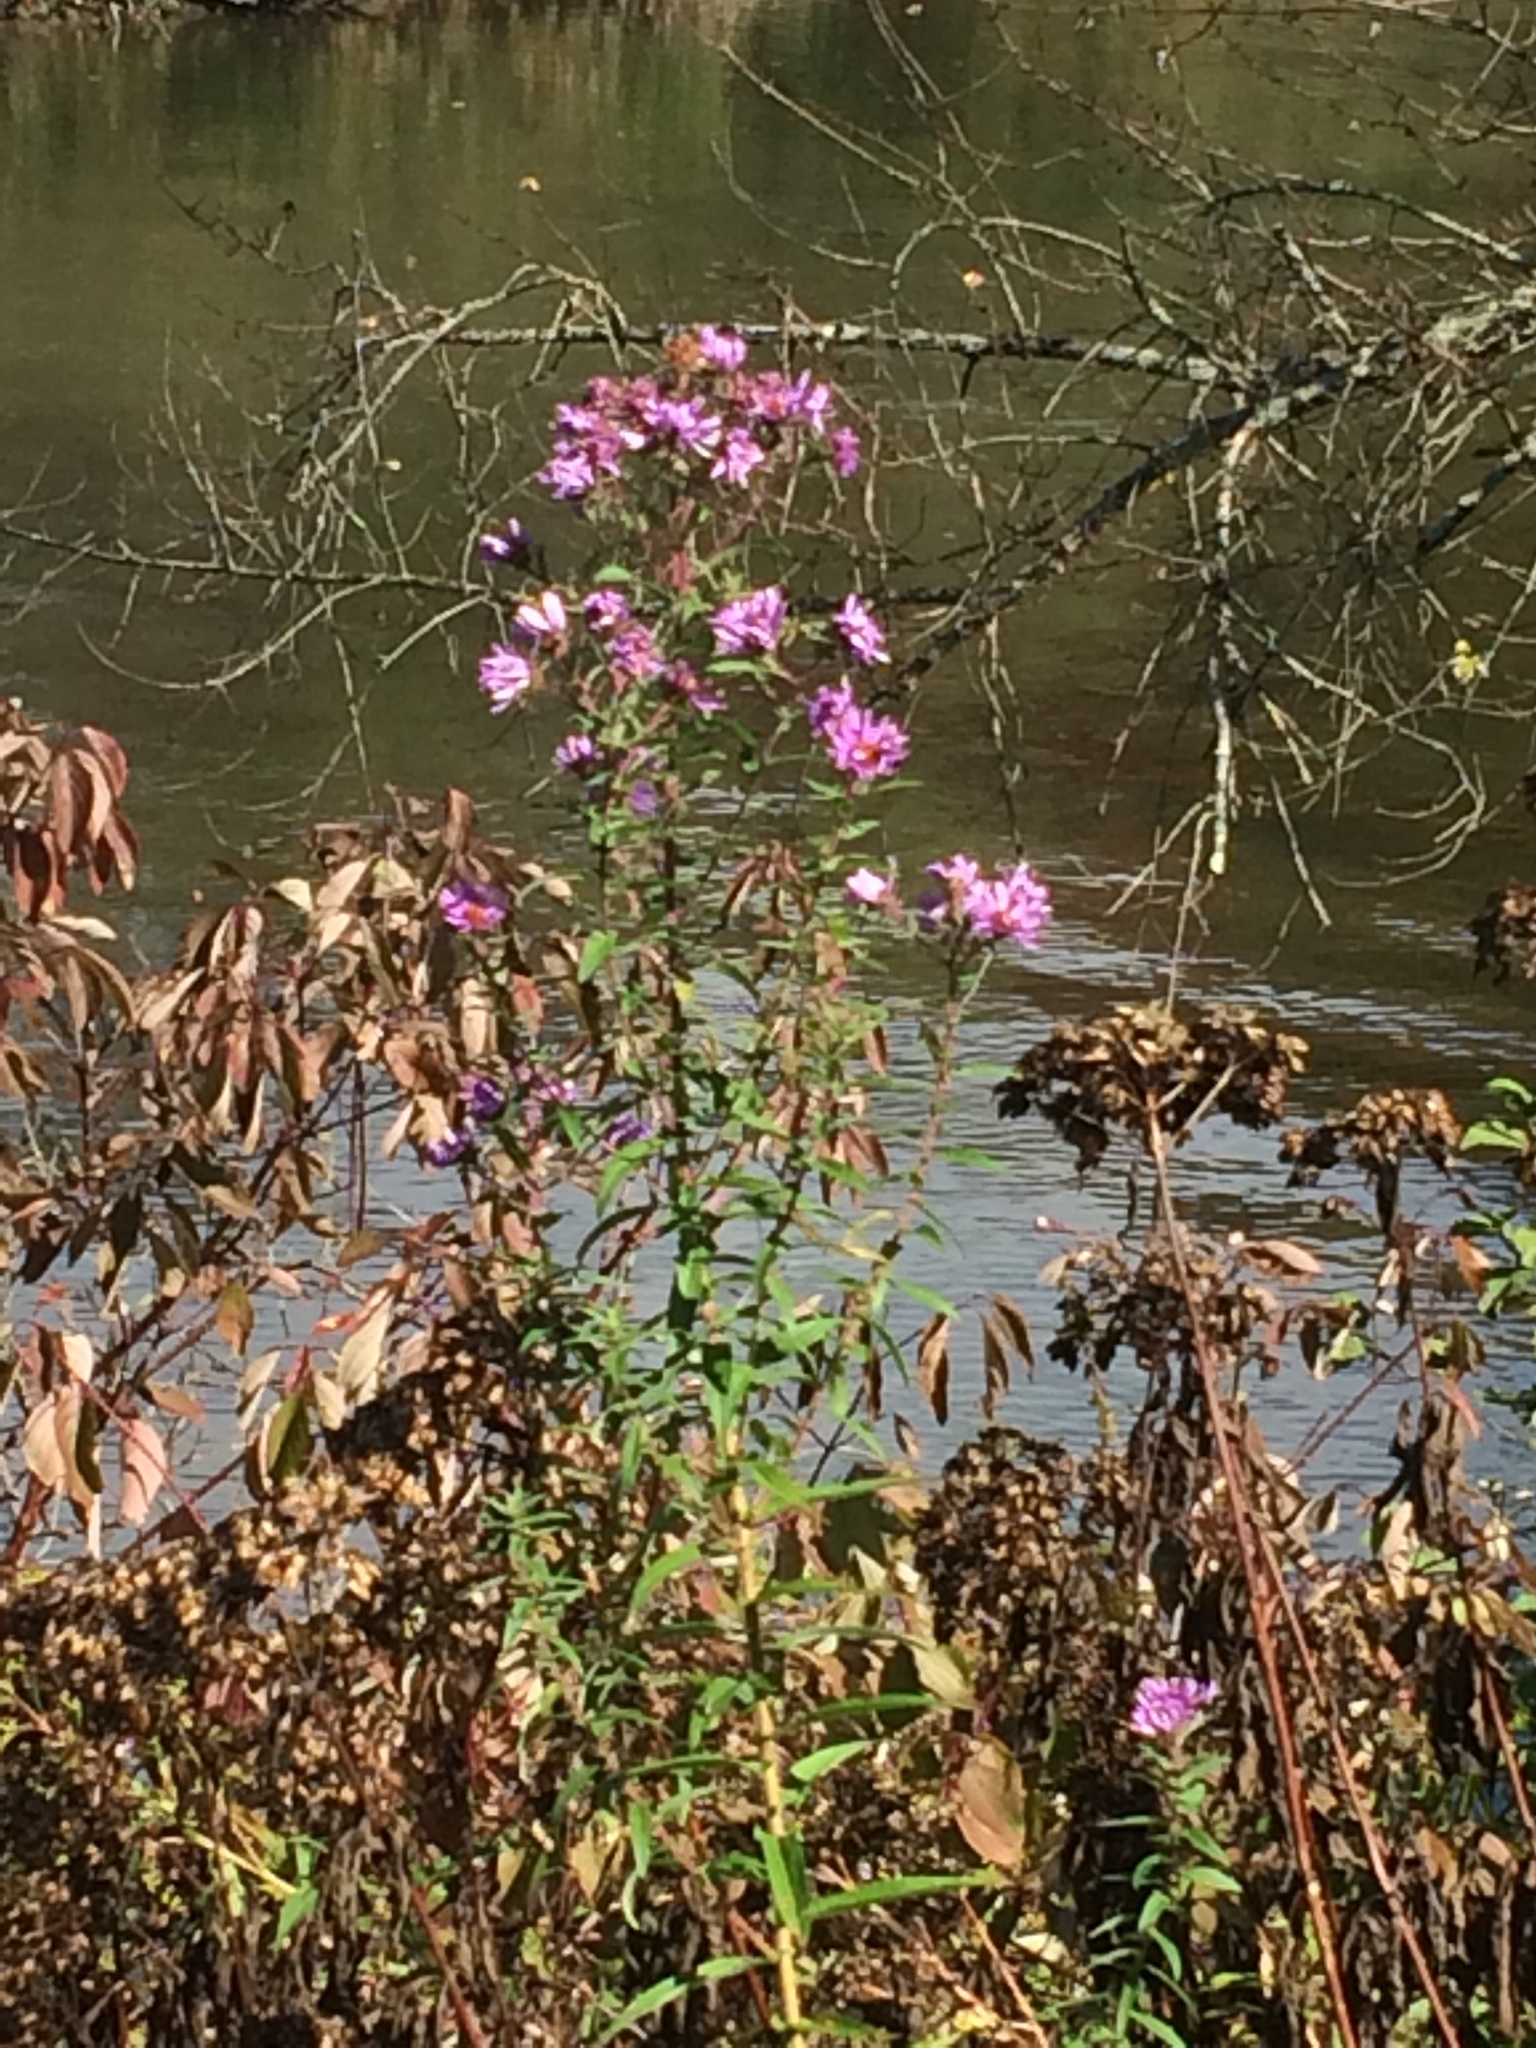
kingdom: Plantae
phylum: Tracheophyta
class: Magnoliopsida
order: Asterales
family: Asteraceae
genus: Symphyotrichum
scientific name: Symphyotrichum novae-angliae
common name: Michaelmas daisy
